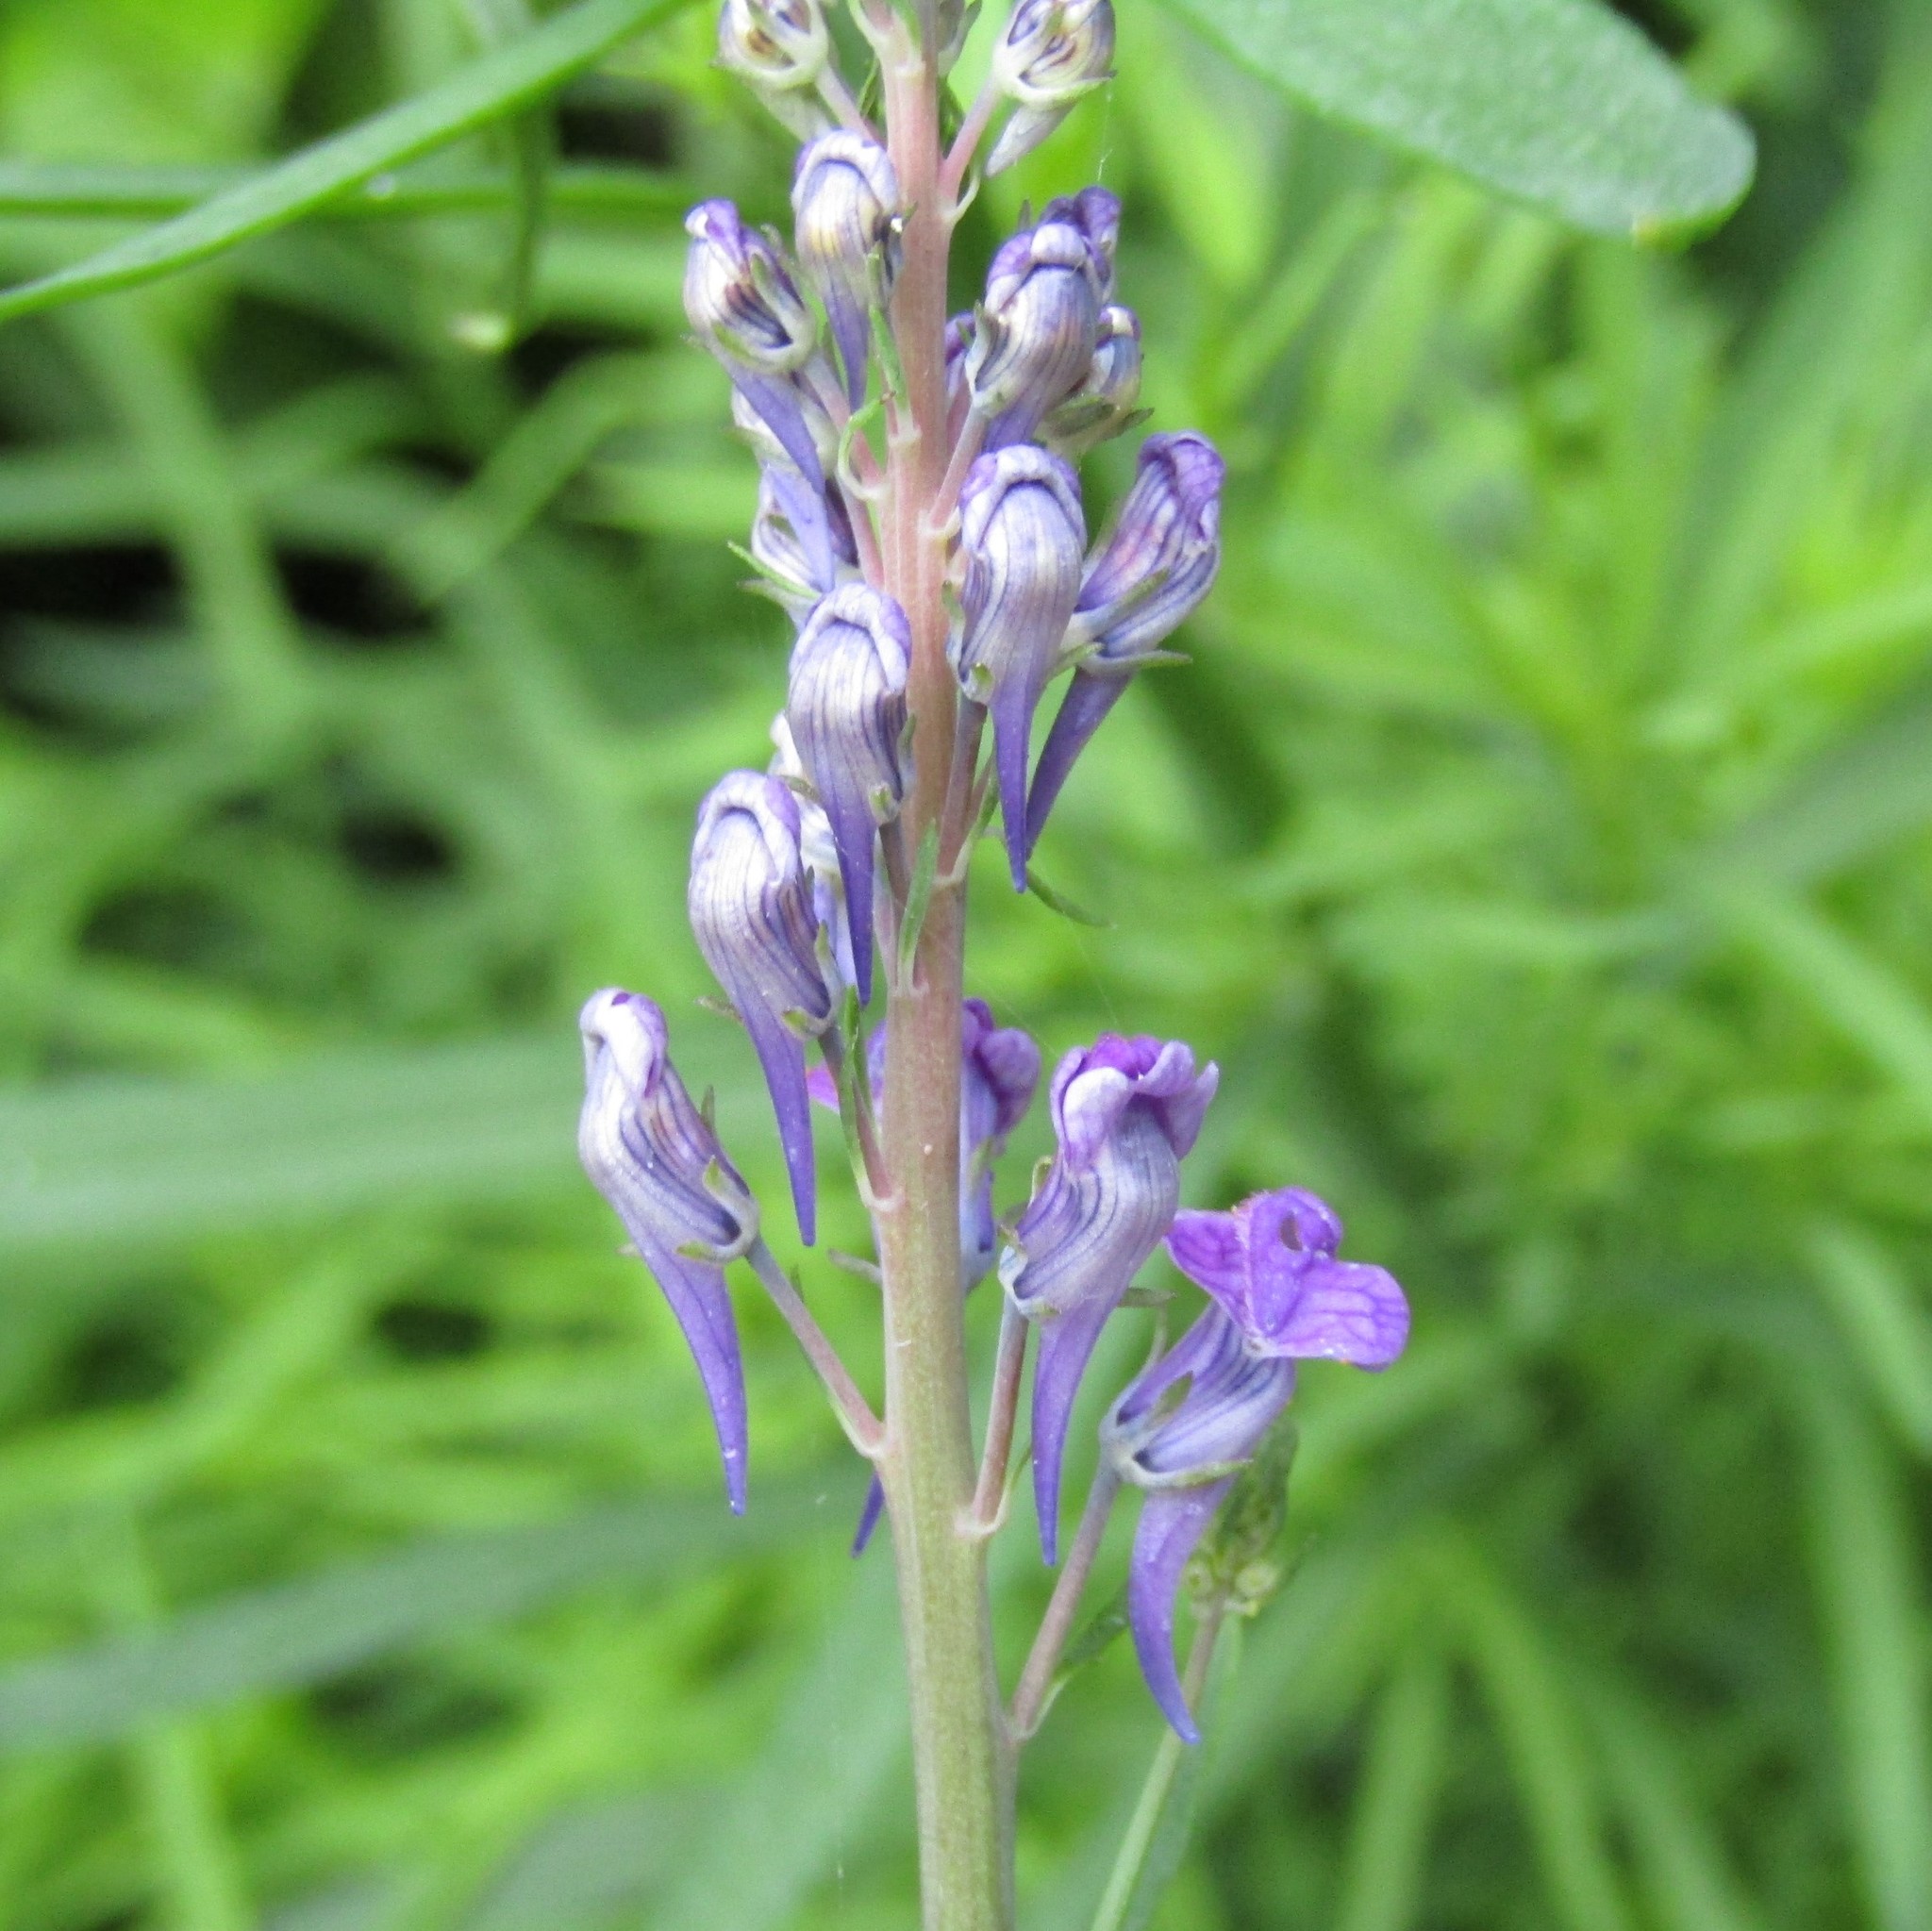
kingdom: Plantae
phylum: Tracheophyta
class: Magnoliopsida
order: Lamiales
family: Plantaginaceae
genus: Linaria
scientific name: Linaria purpurea
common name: Purple toadflax
